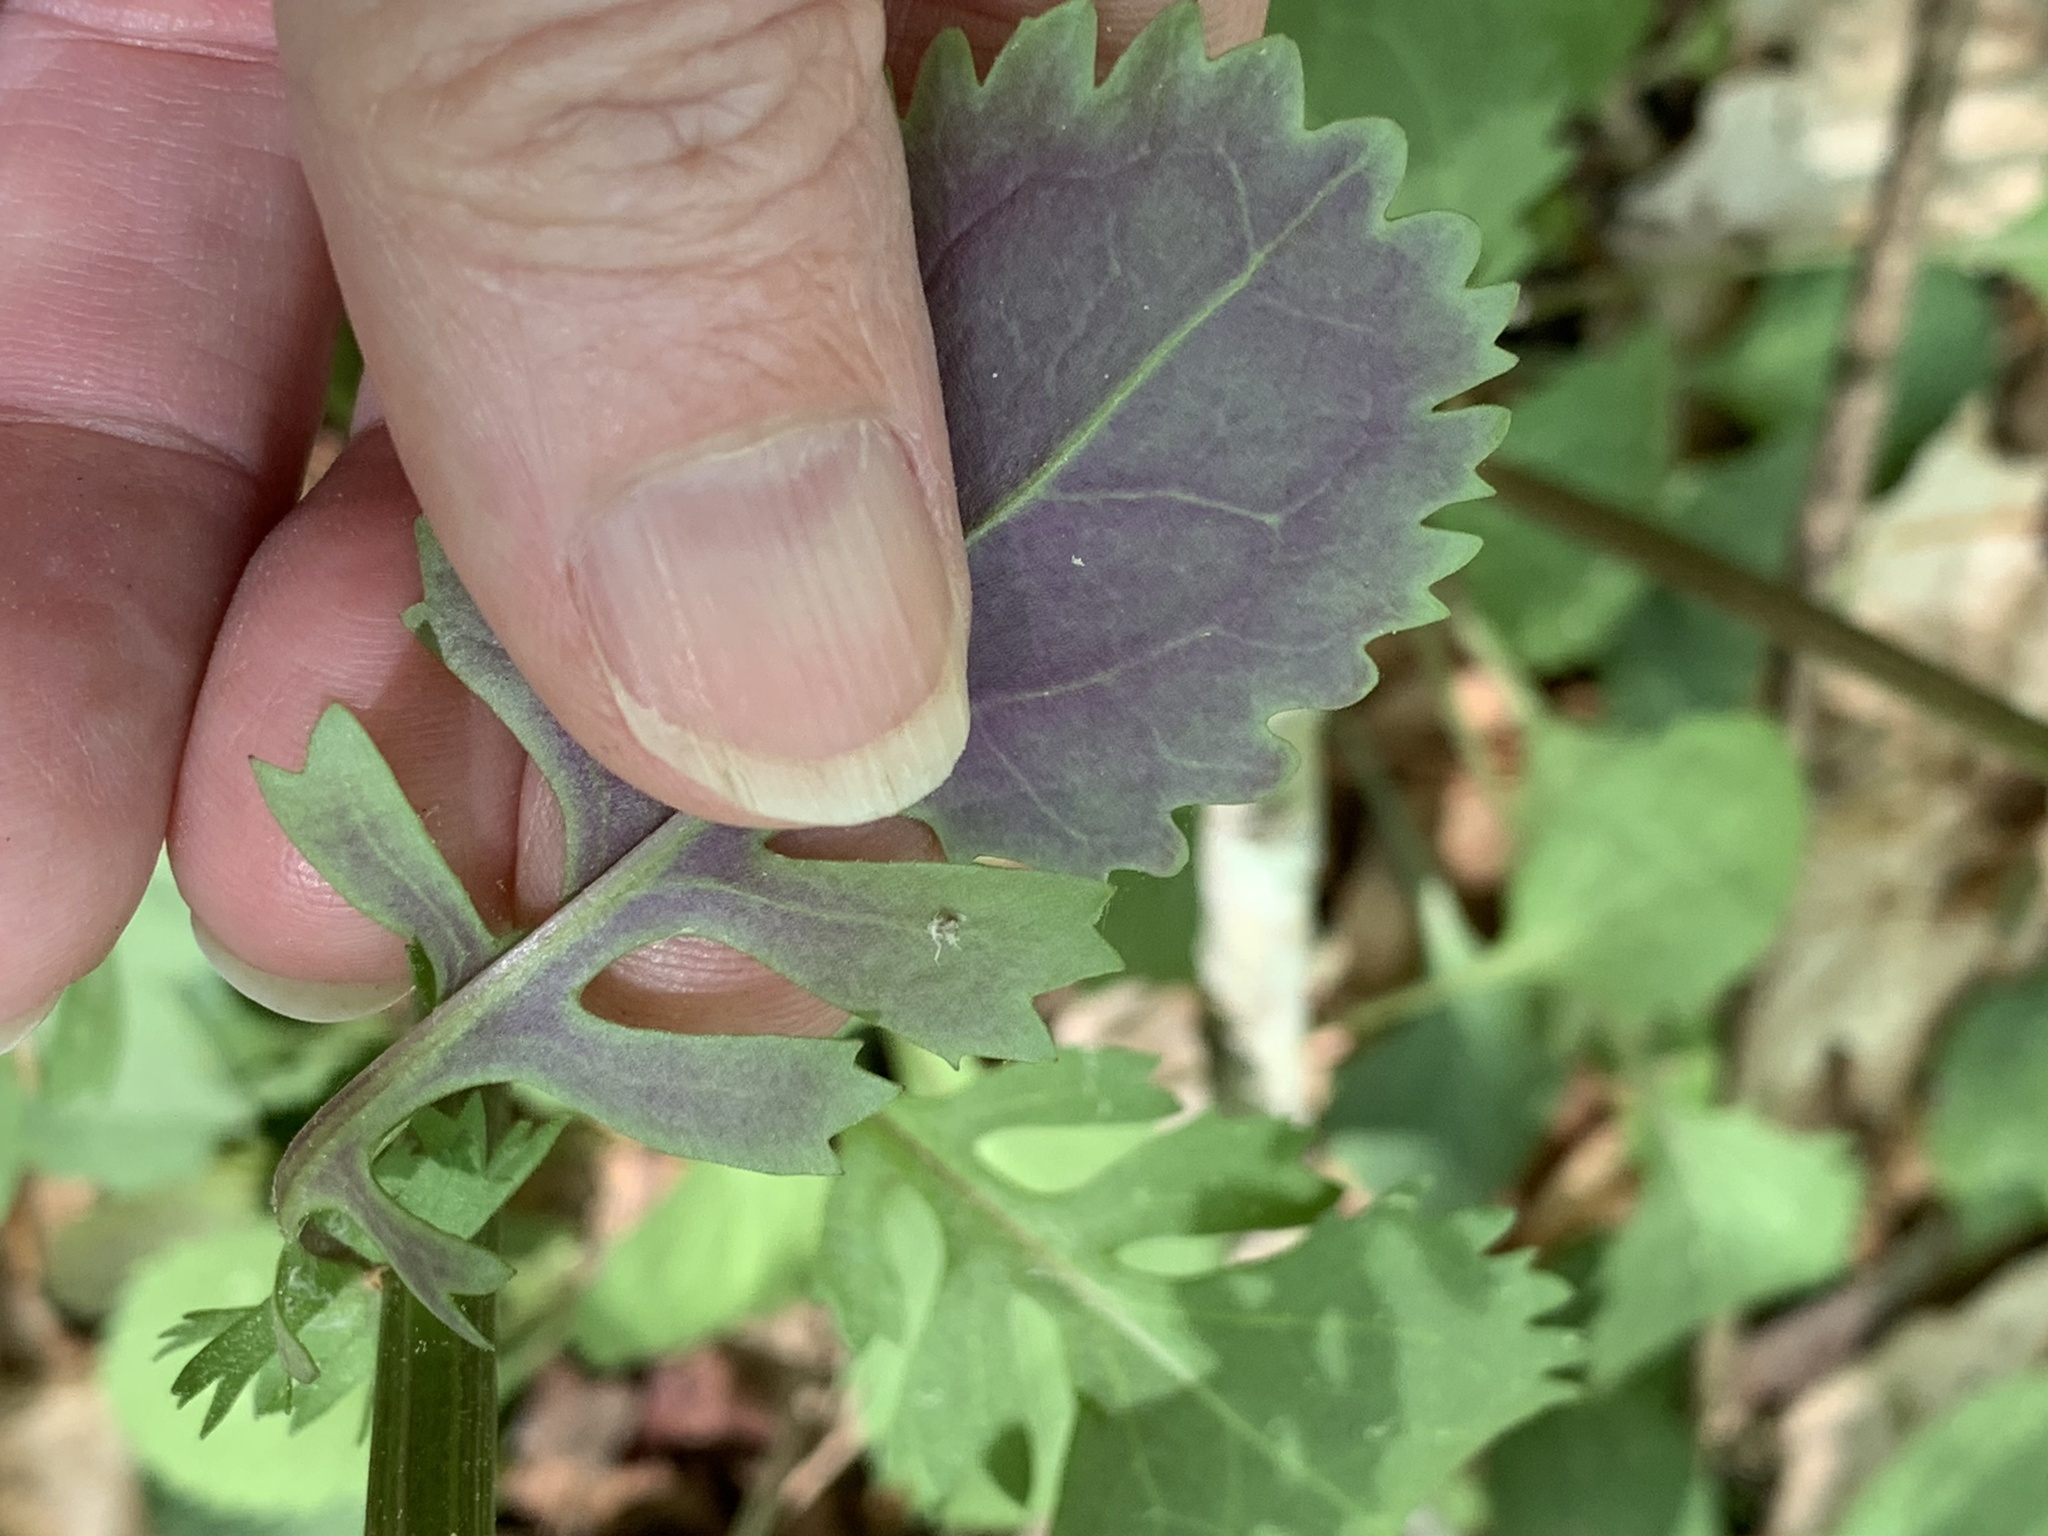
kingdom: Plantae
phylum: Tracheophyta
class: Magnoliopsida
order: Asterales
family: Asteraceae
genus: Packera
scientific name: Packera obovata
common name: Round-leaf ragwort
